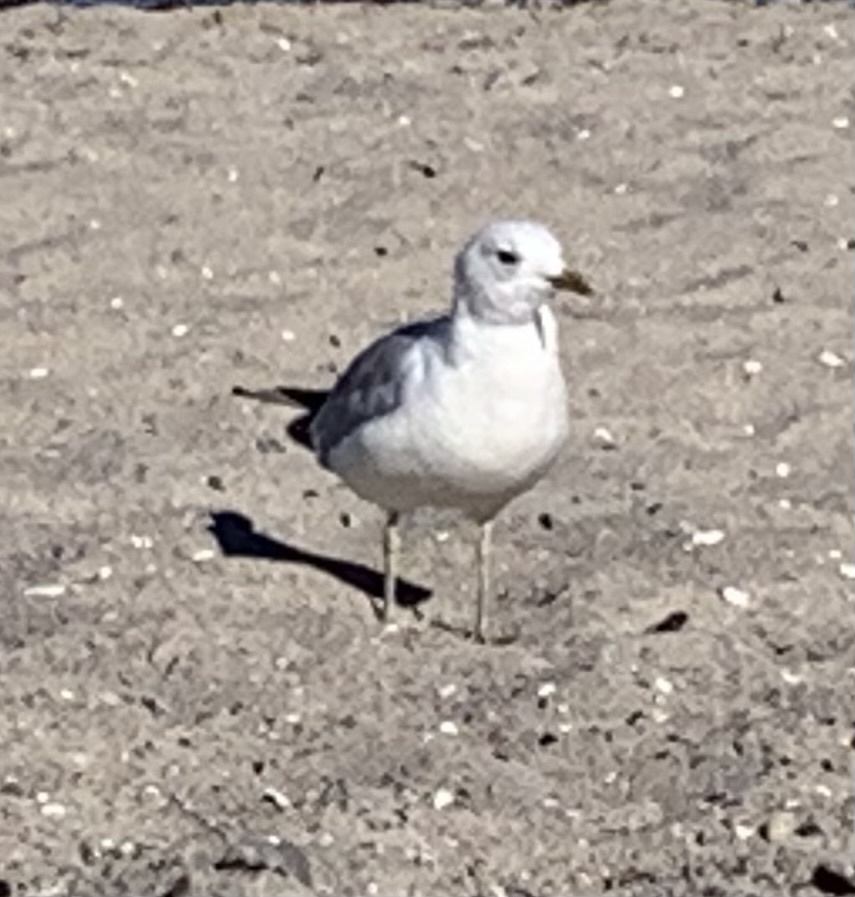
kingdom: Animalia
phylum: Chordata
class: Aves
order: Charadriiformes
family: Laridae
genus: Larus
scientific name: Larus canus
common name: Mew gull
